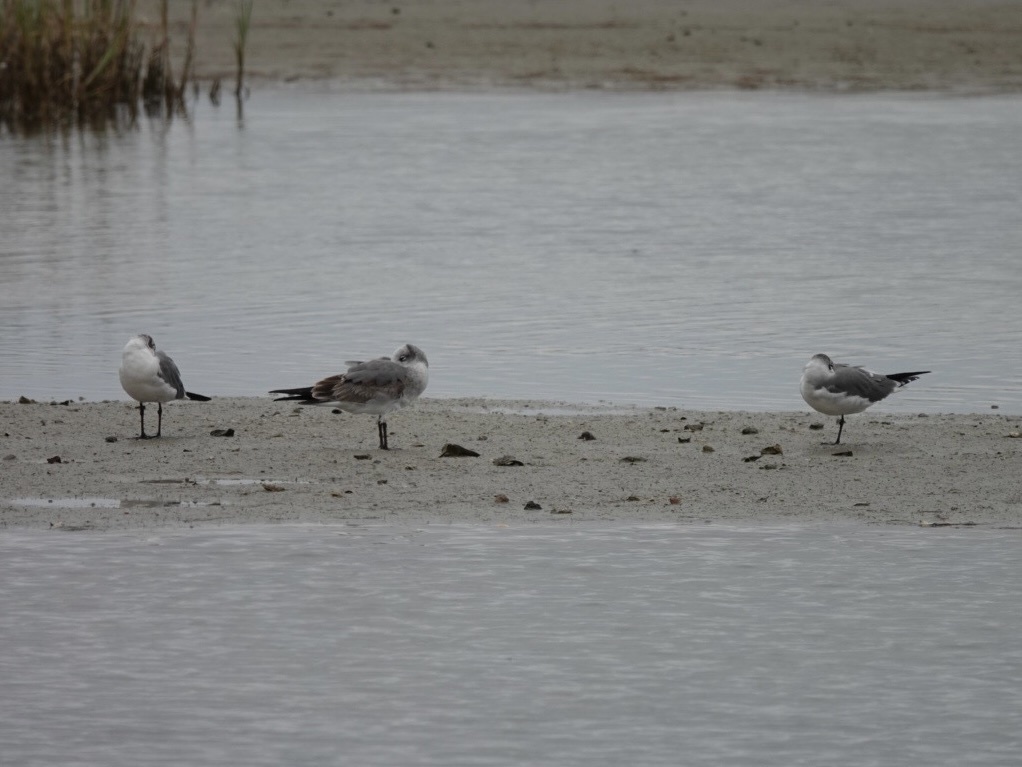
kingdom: Animalia
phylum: Chordata
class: Aves
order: Charadriiformes
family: Laridae
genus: Leucophaeus
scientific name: Leucophaeus atricilla
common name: Laughing gull
